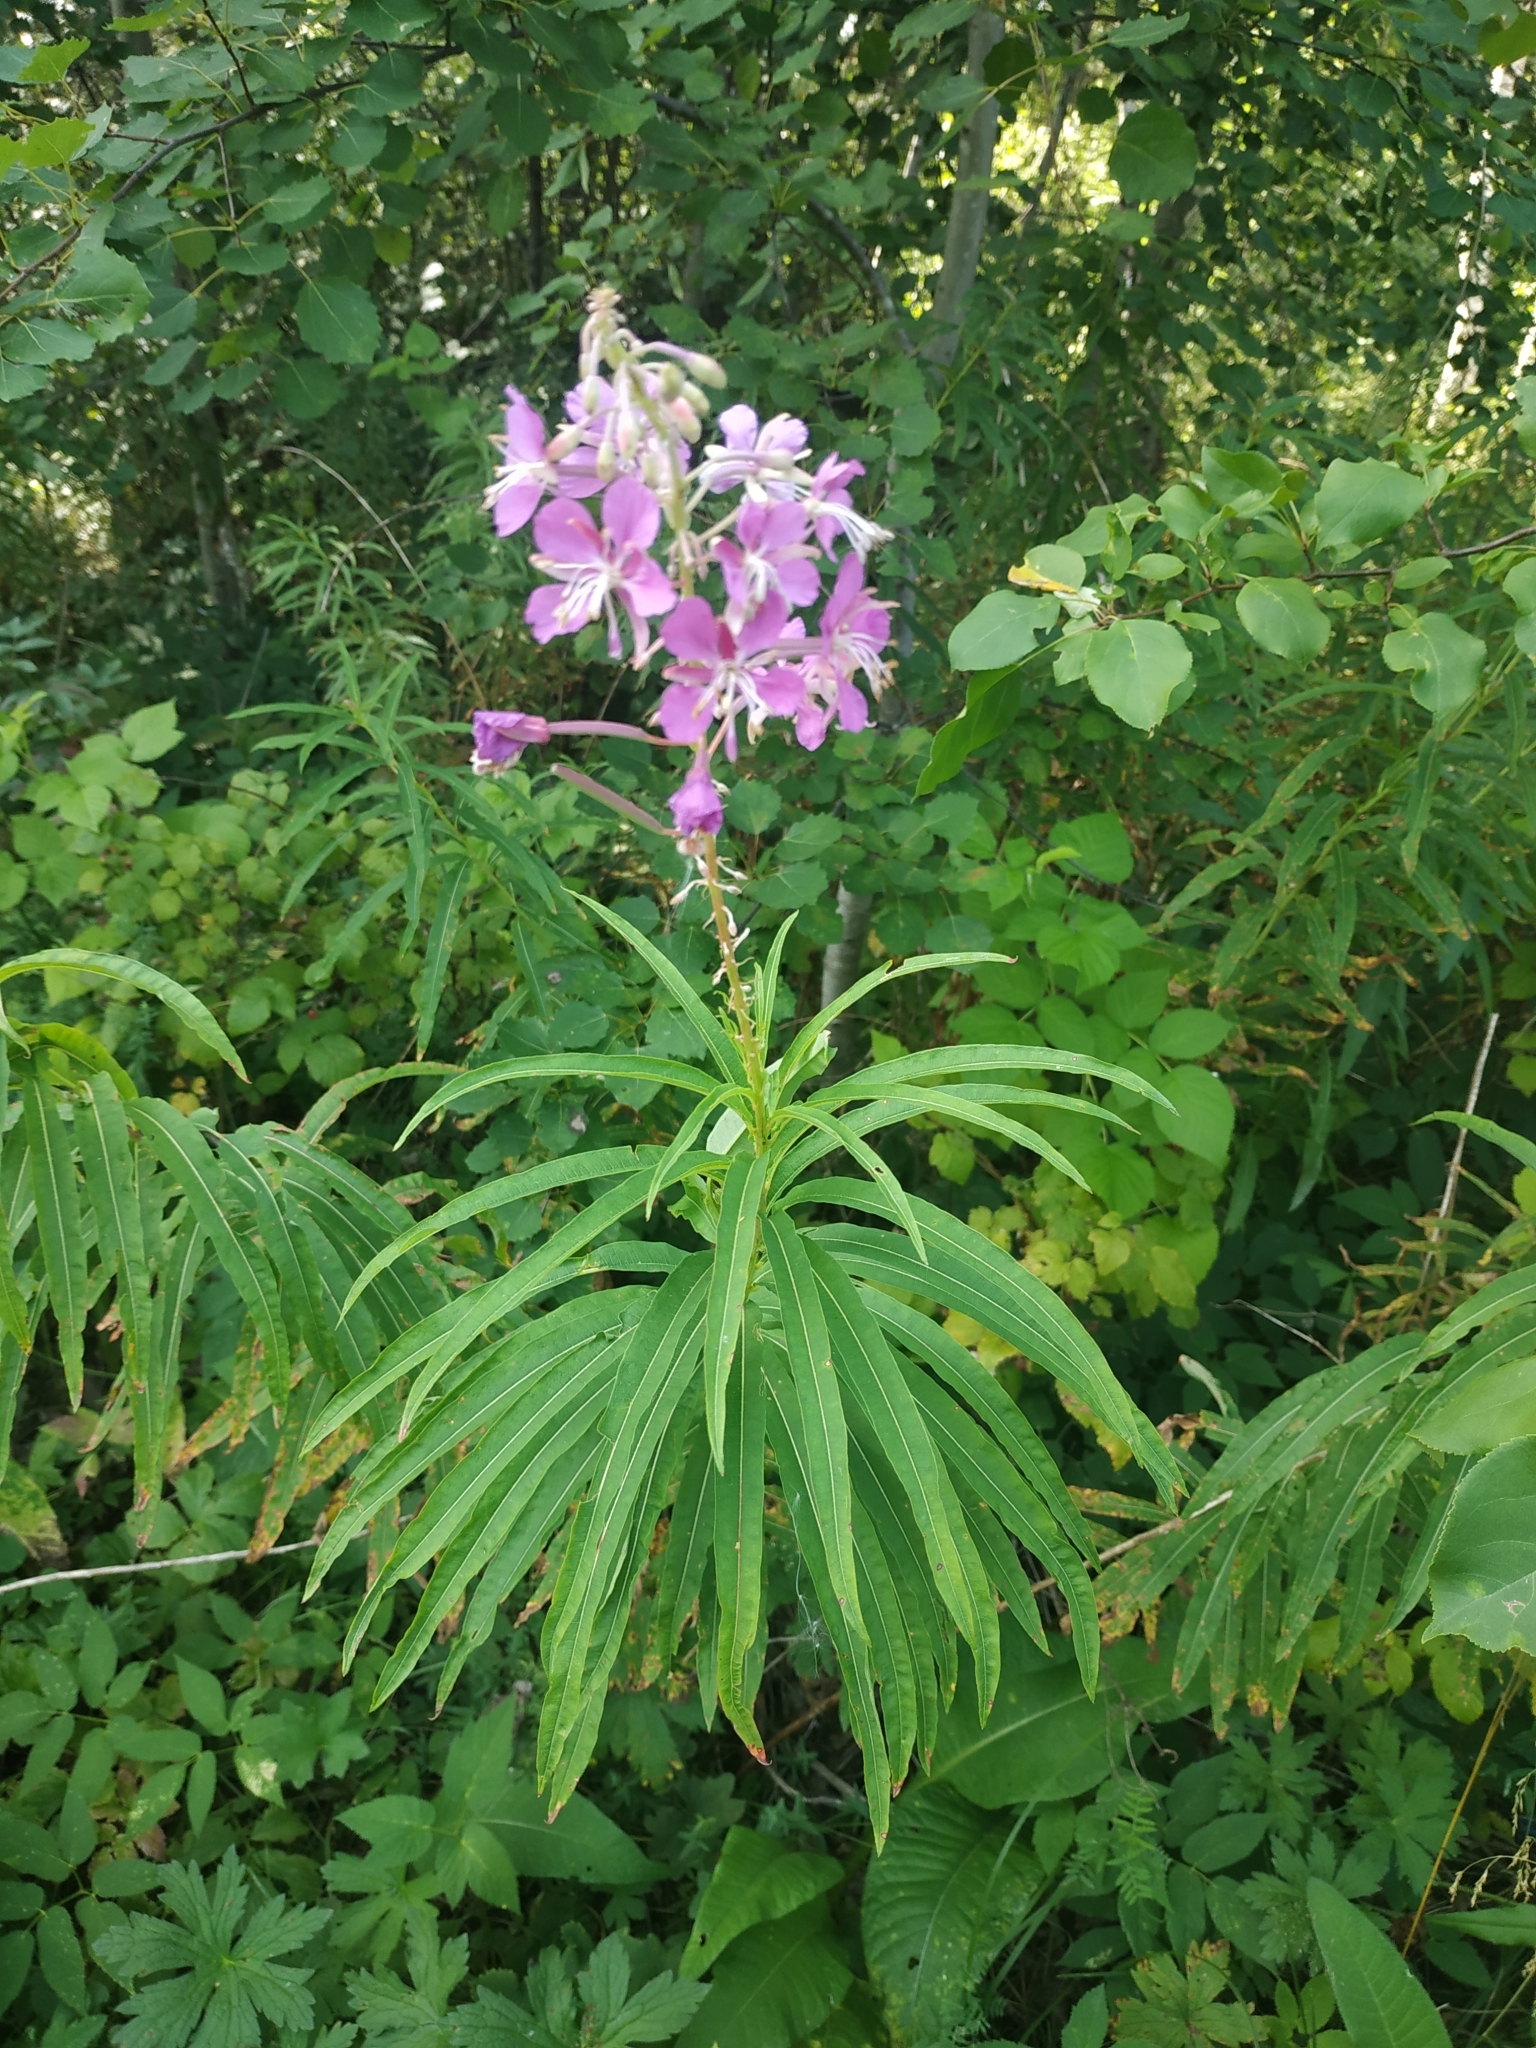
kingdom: Plantae
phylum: Tracheophyta
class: Magnoliopsida
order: Myrtales
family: Onagraceae
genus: Chamaenerion
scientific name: Chamaenerion angustifolium
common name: Fireweed
